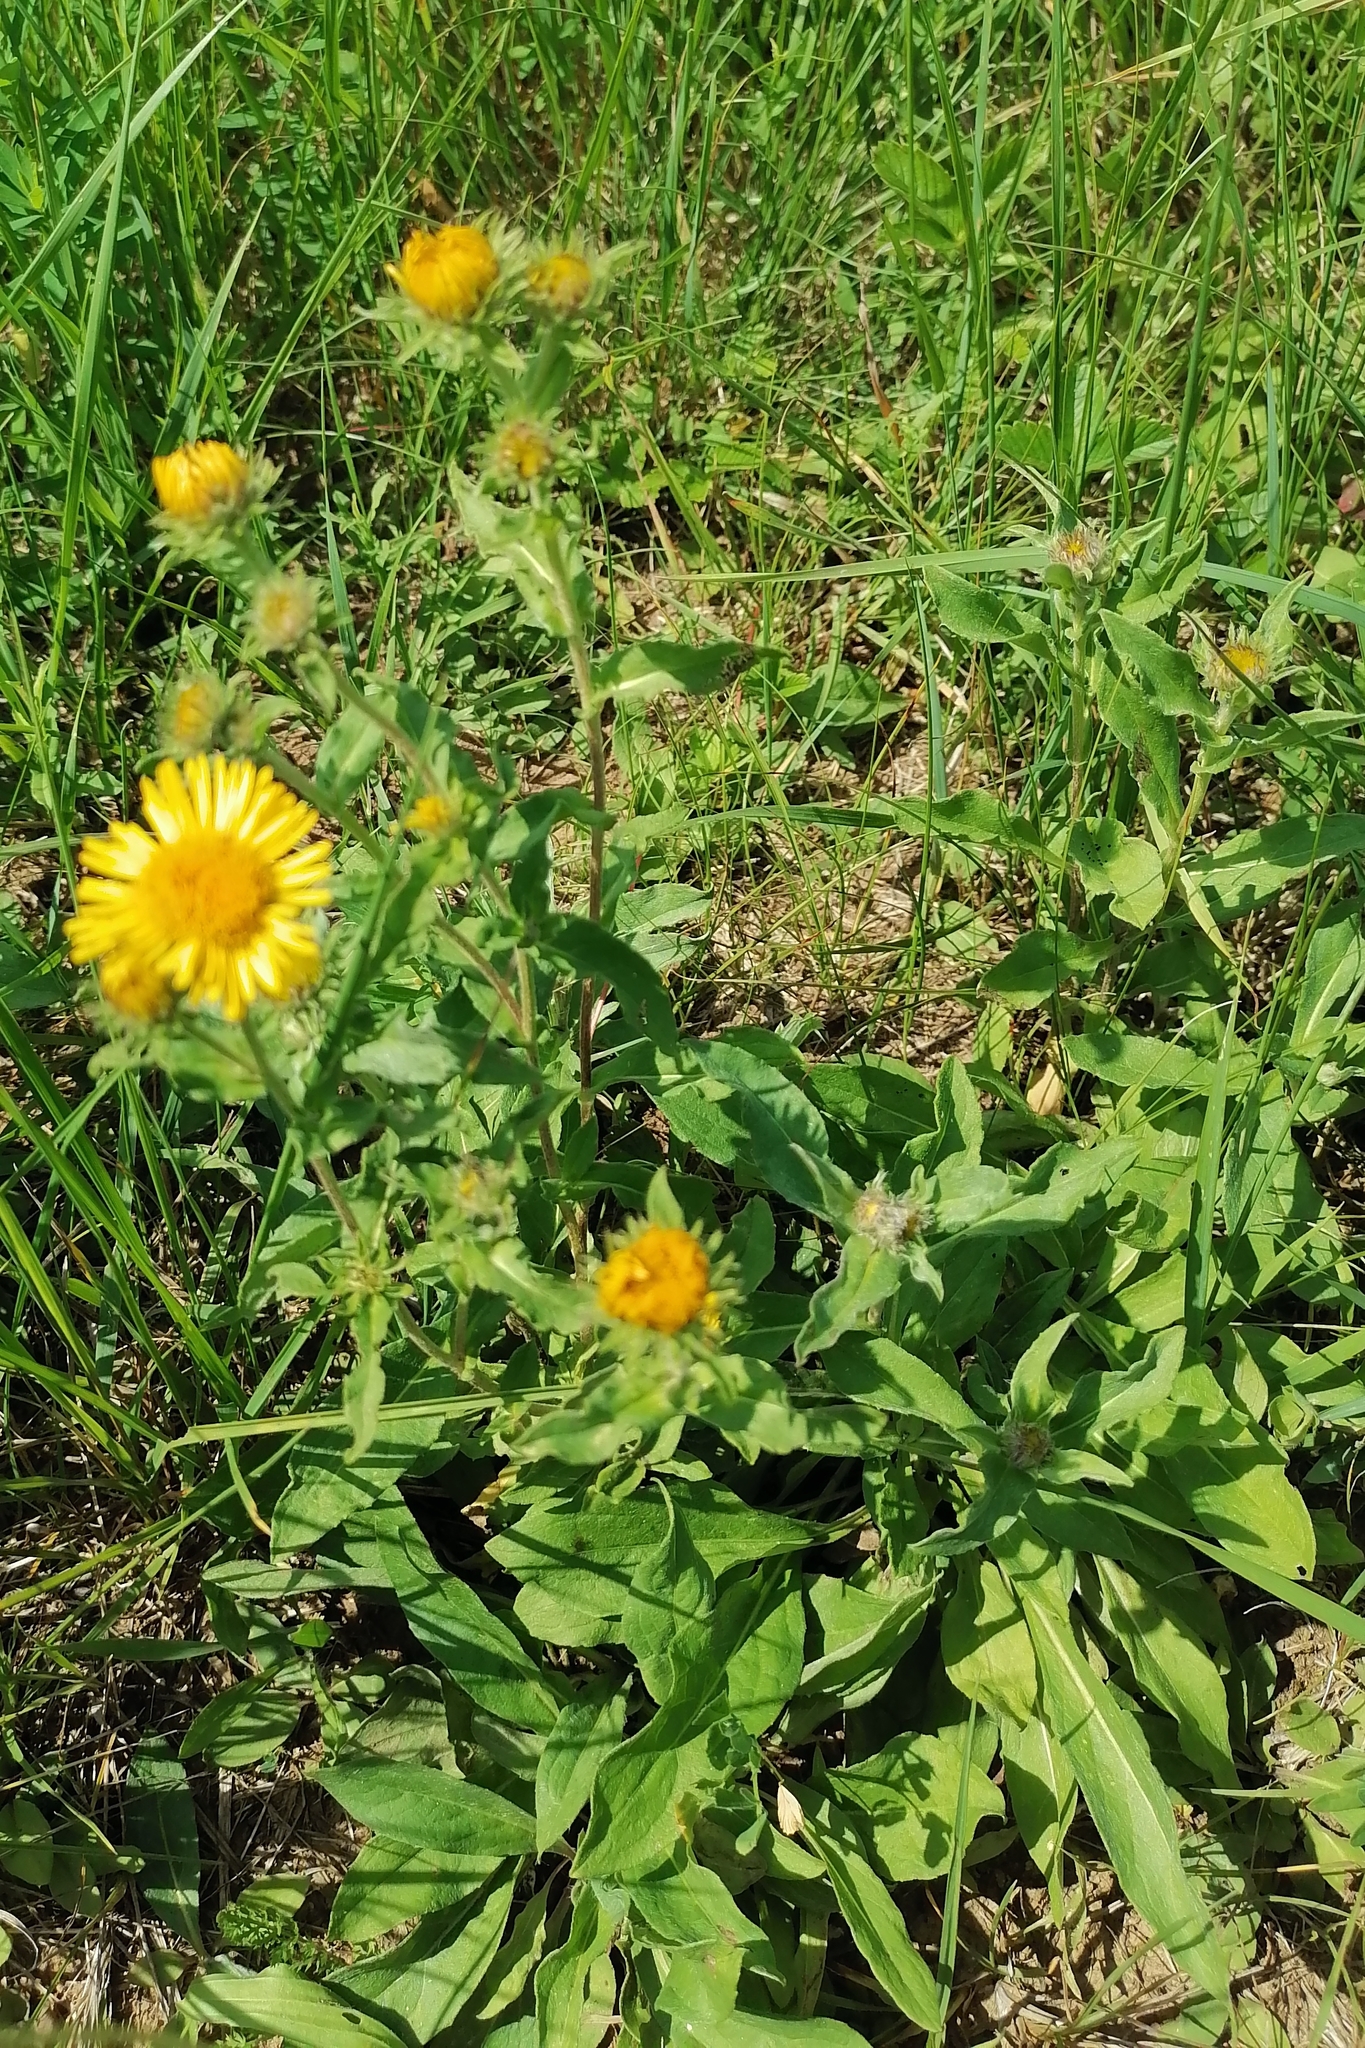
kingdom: Plantae
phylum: Tracheophyta
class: Magnoliopsida
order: Asterales
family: Asteraceae
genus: Pentanema
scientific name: Pentanema britannicum
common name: British elecampane
